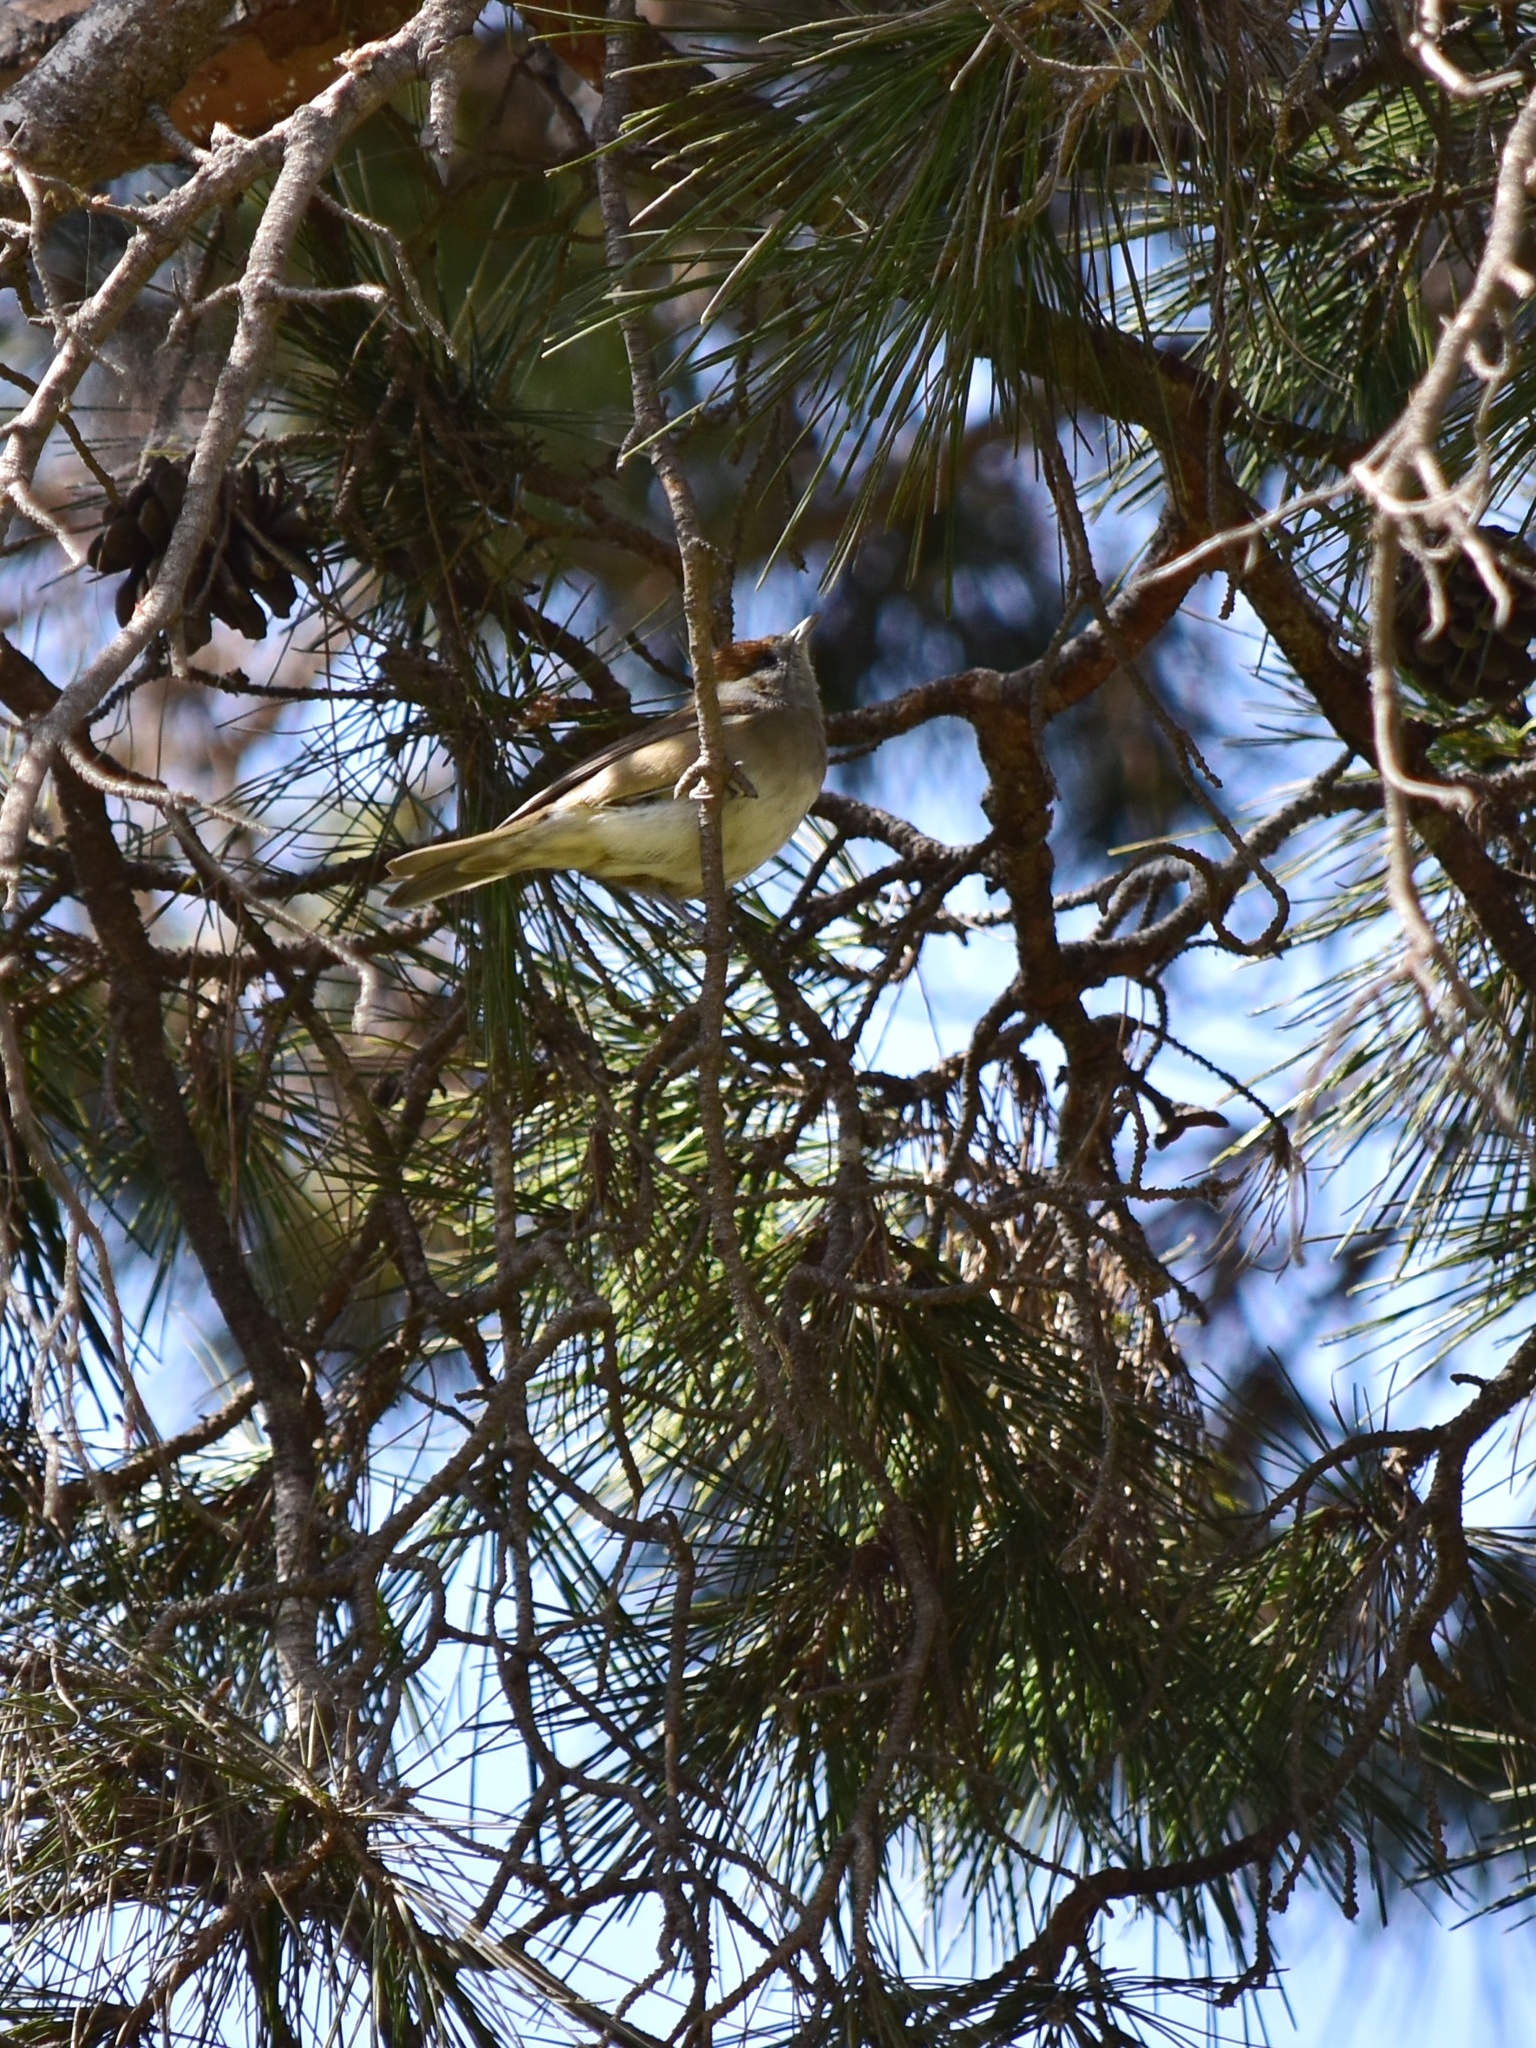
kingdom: Animalia
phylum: Chordata
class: Aves
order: Passeriformes
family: Sylviidae
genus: Sylvia
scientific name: Sylvia atricapilla
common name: Eurasian blackcap
